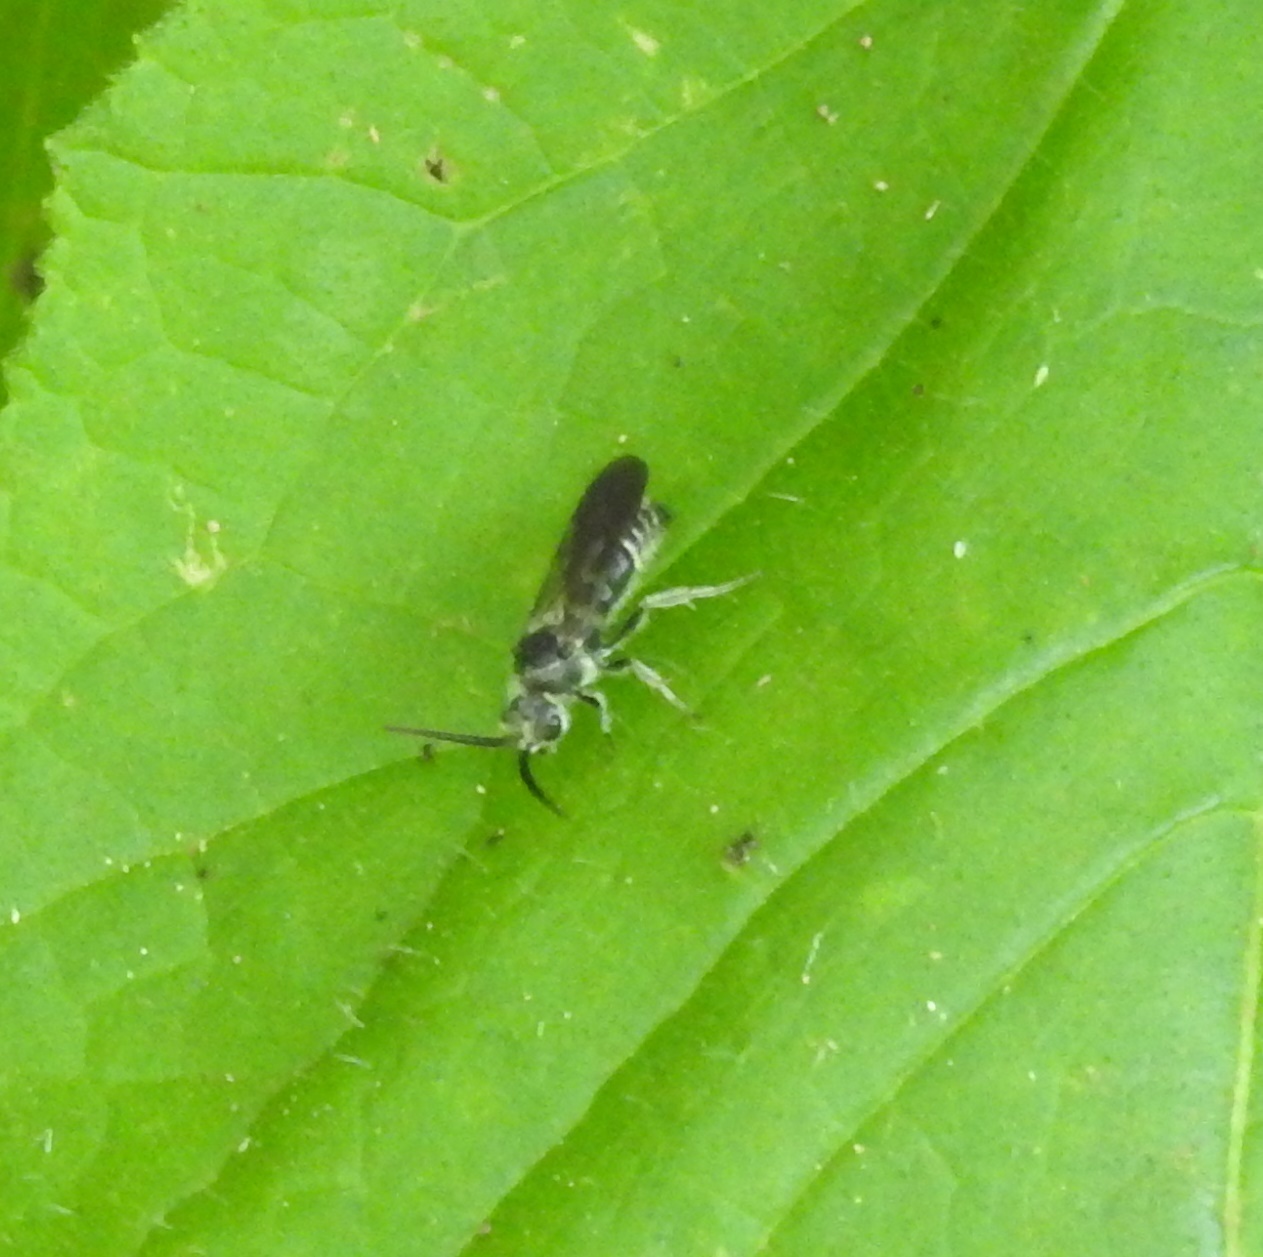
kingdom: Animalia
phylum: Arthropoda
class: Insecta
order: Hymenoptera
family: Mutillidae
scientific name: Mutillidae
